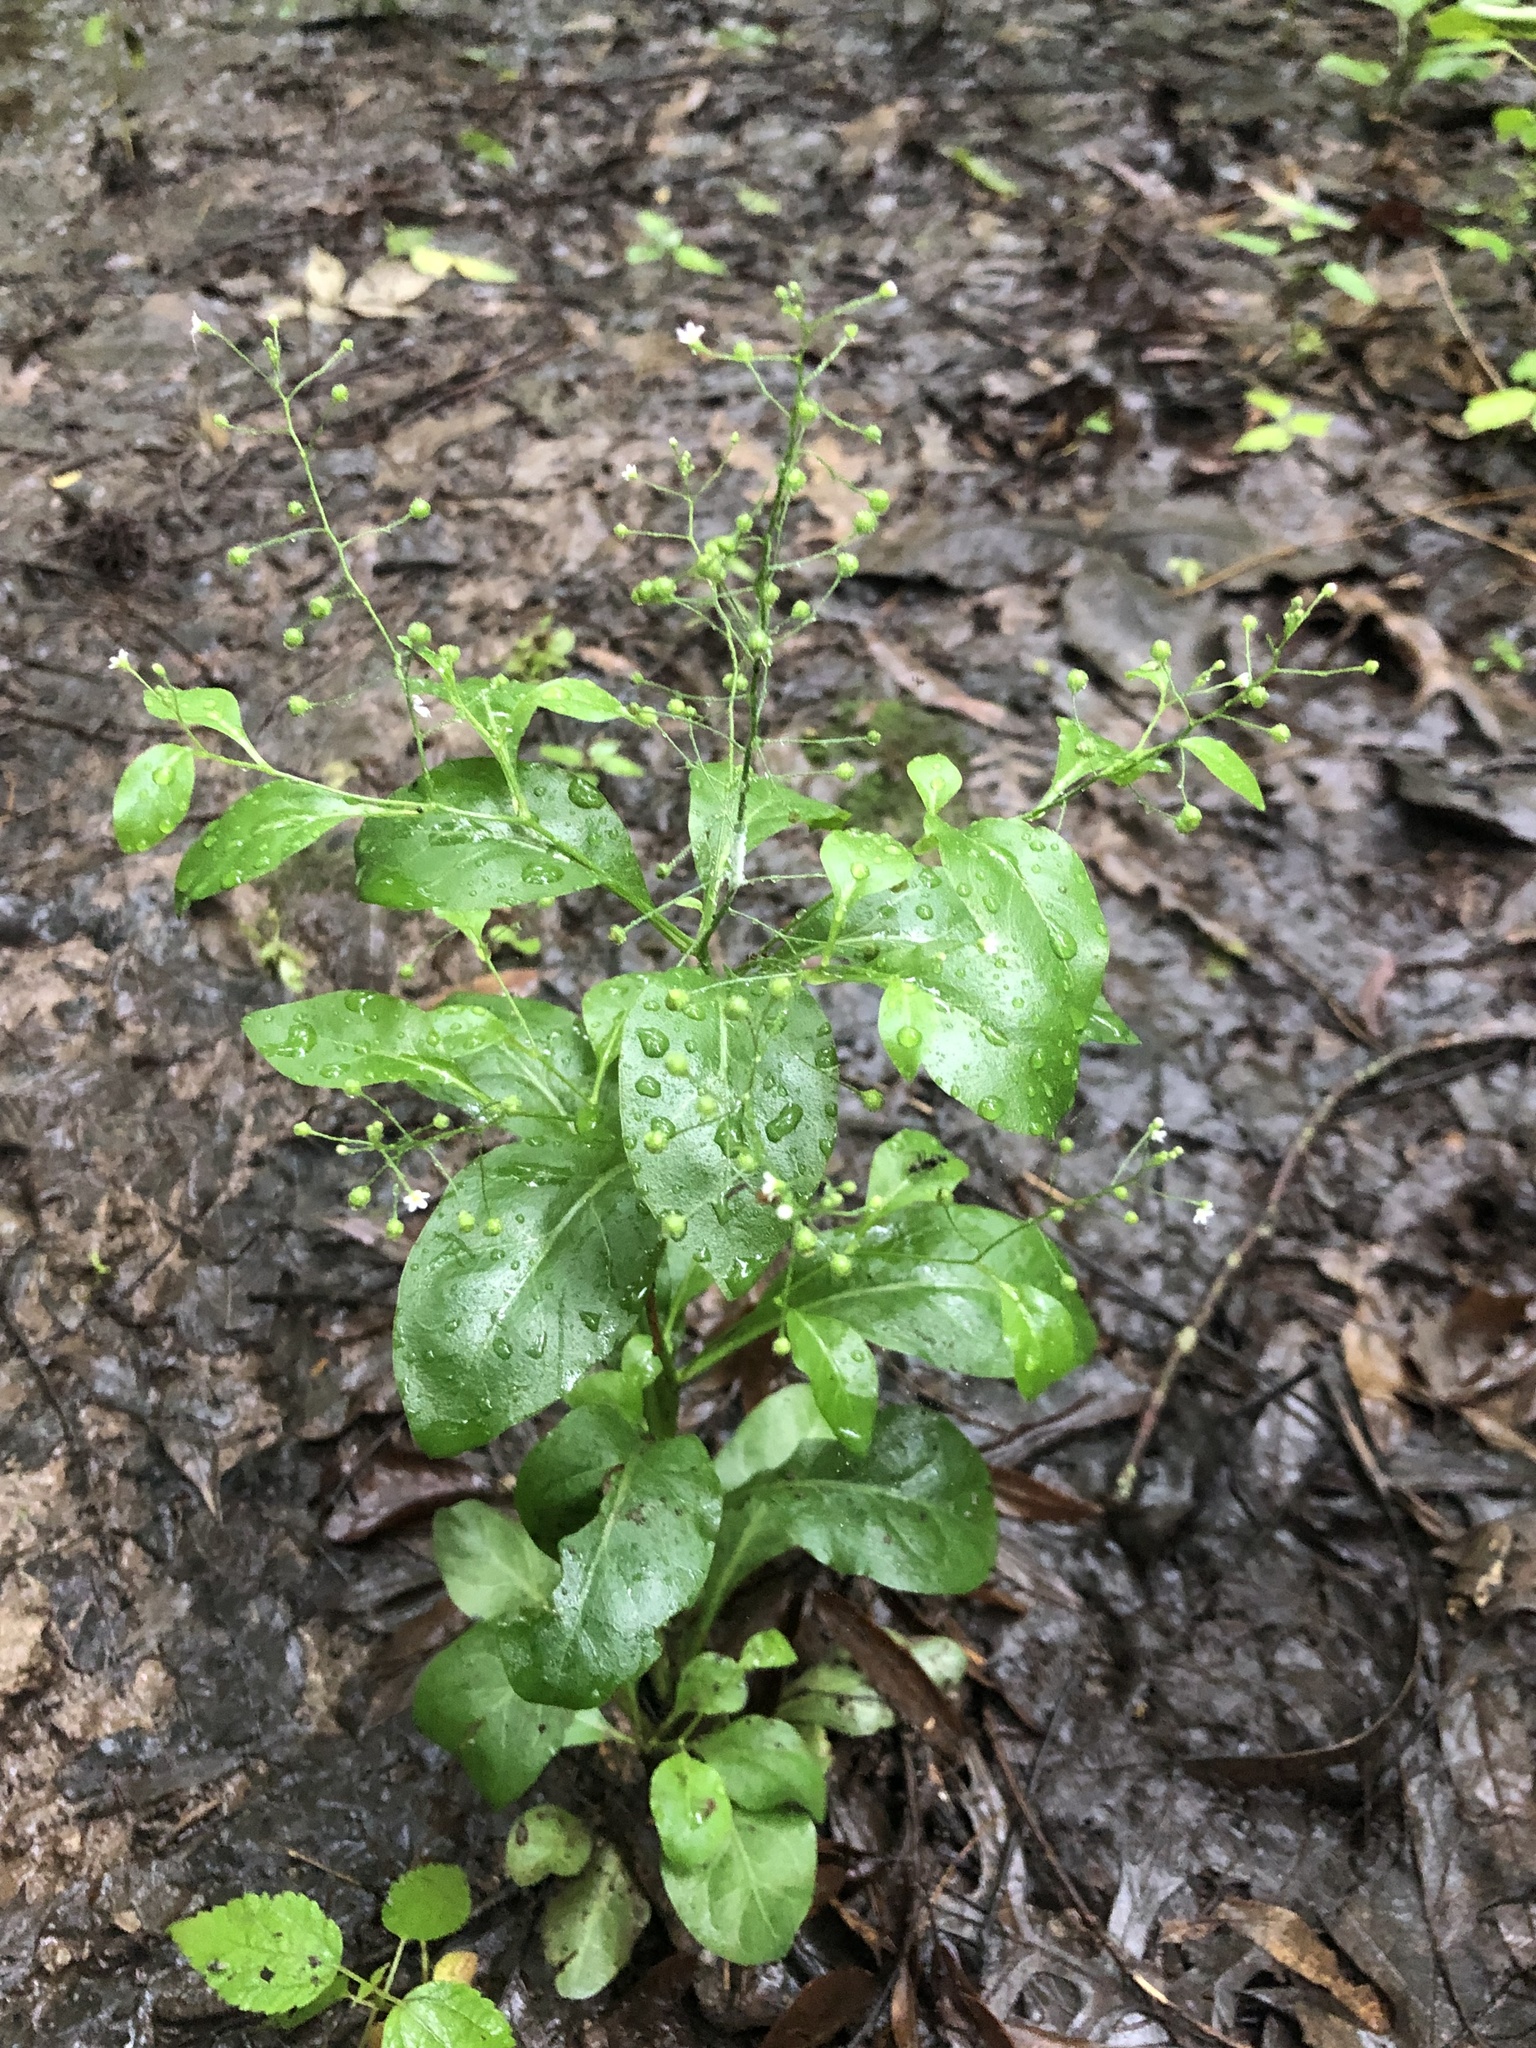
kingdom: Plantae
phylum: Tracheophyta
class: Magnoliopsida
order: Ericales
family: Primulaceae
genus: Samolus
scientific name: Samolus parviflorus
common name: False water pimpernel
